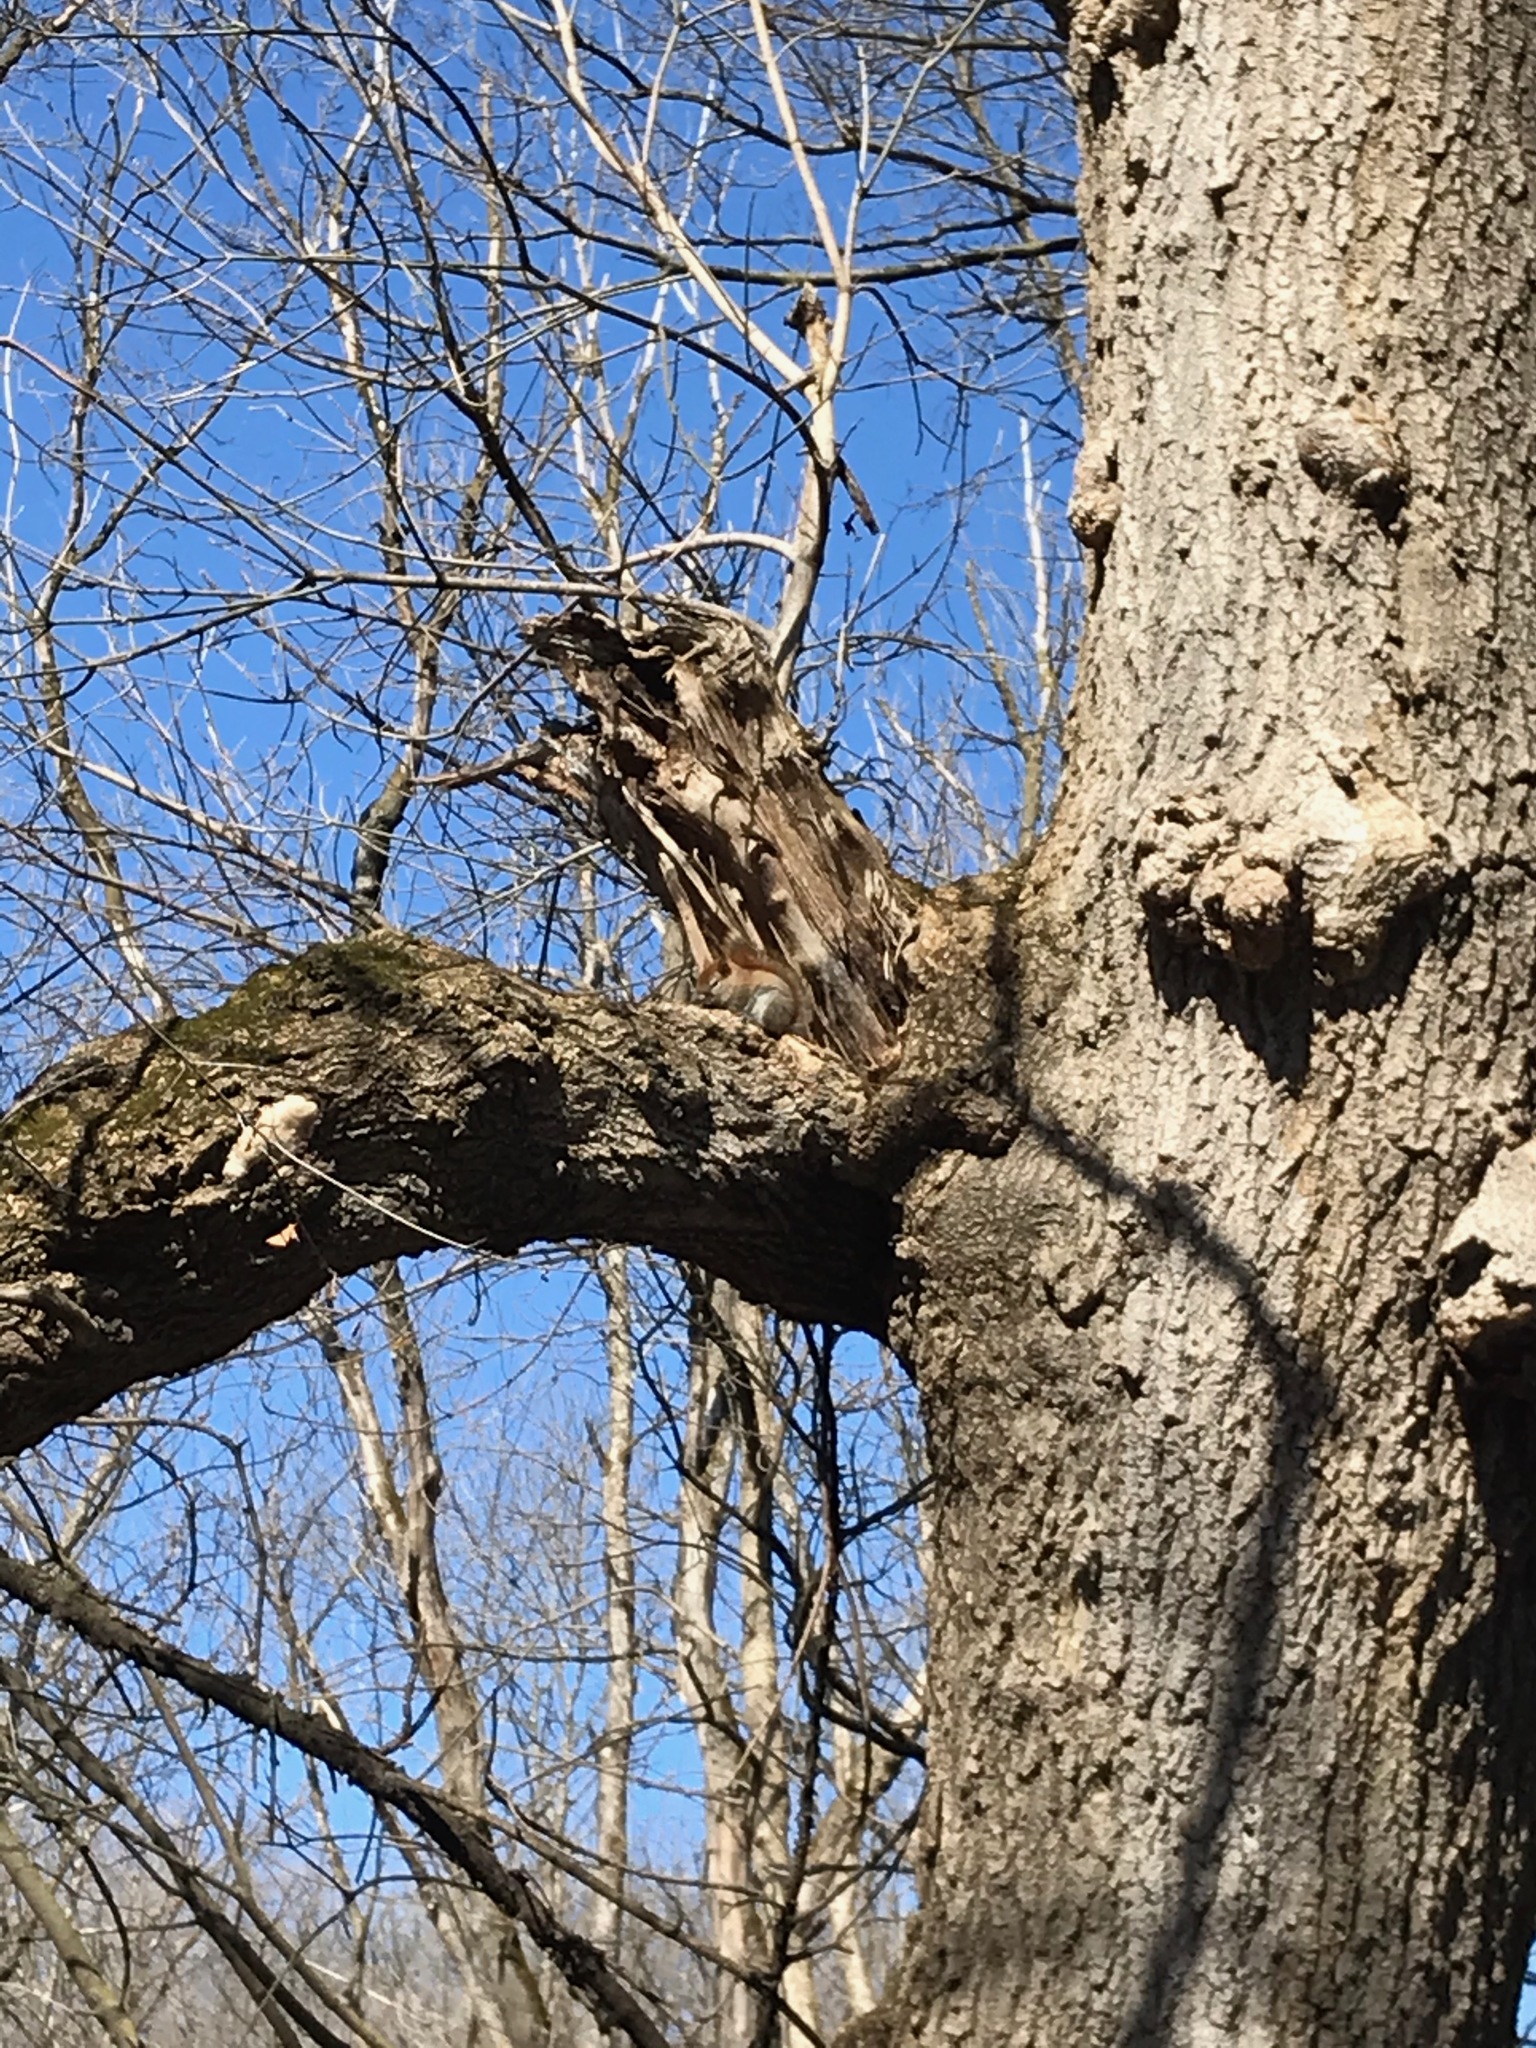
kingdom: Animalia
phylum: Chordata
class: Mammalia
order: Rodentia
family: Sciuridae
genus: Tamiasciurus
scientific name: Tamiasciurus hudsonicus
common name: Red squirrel
